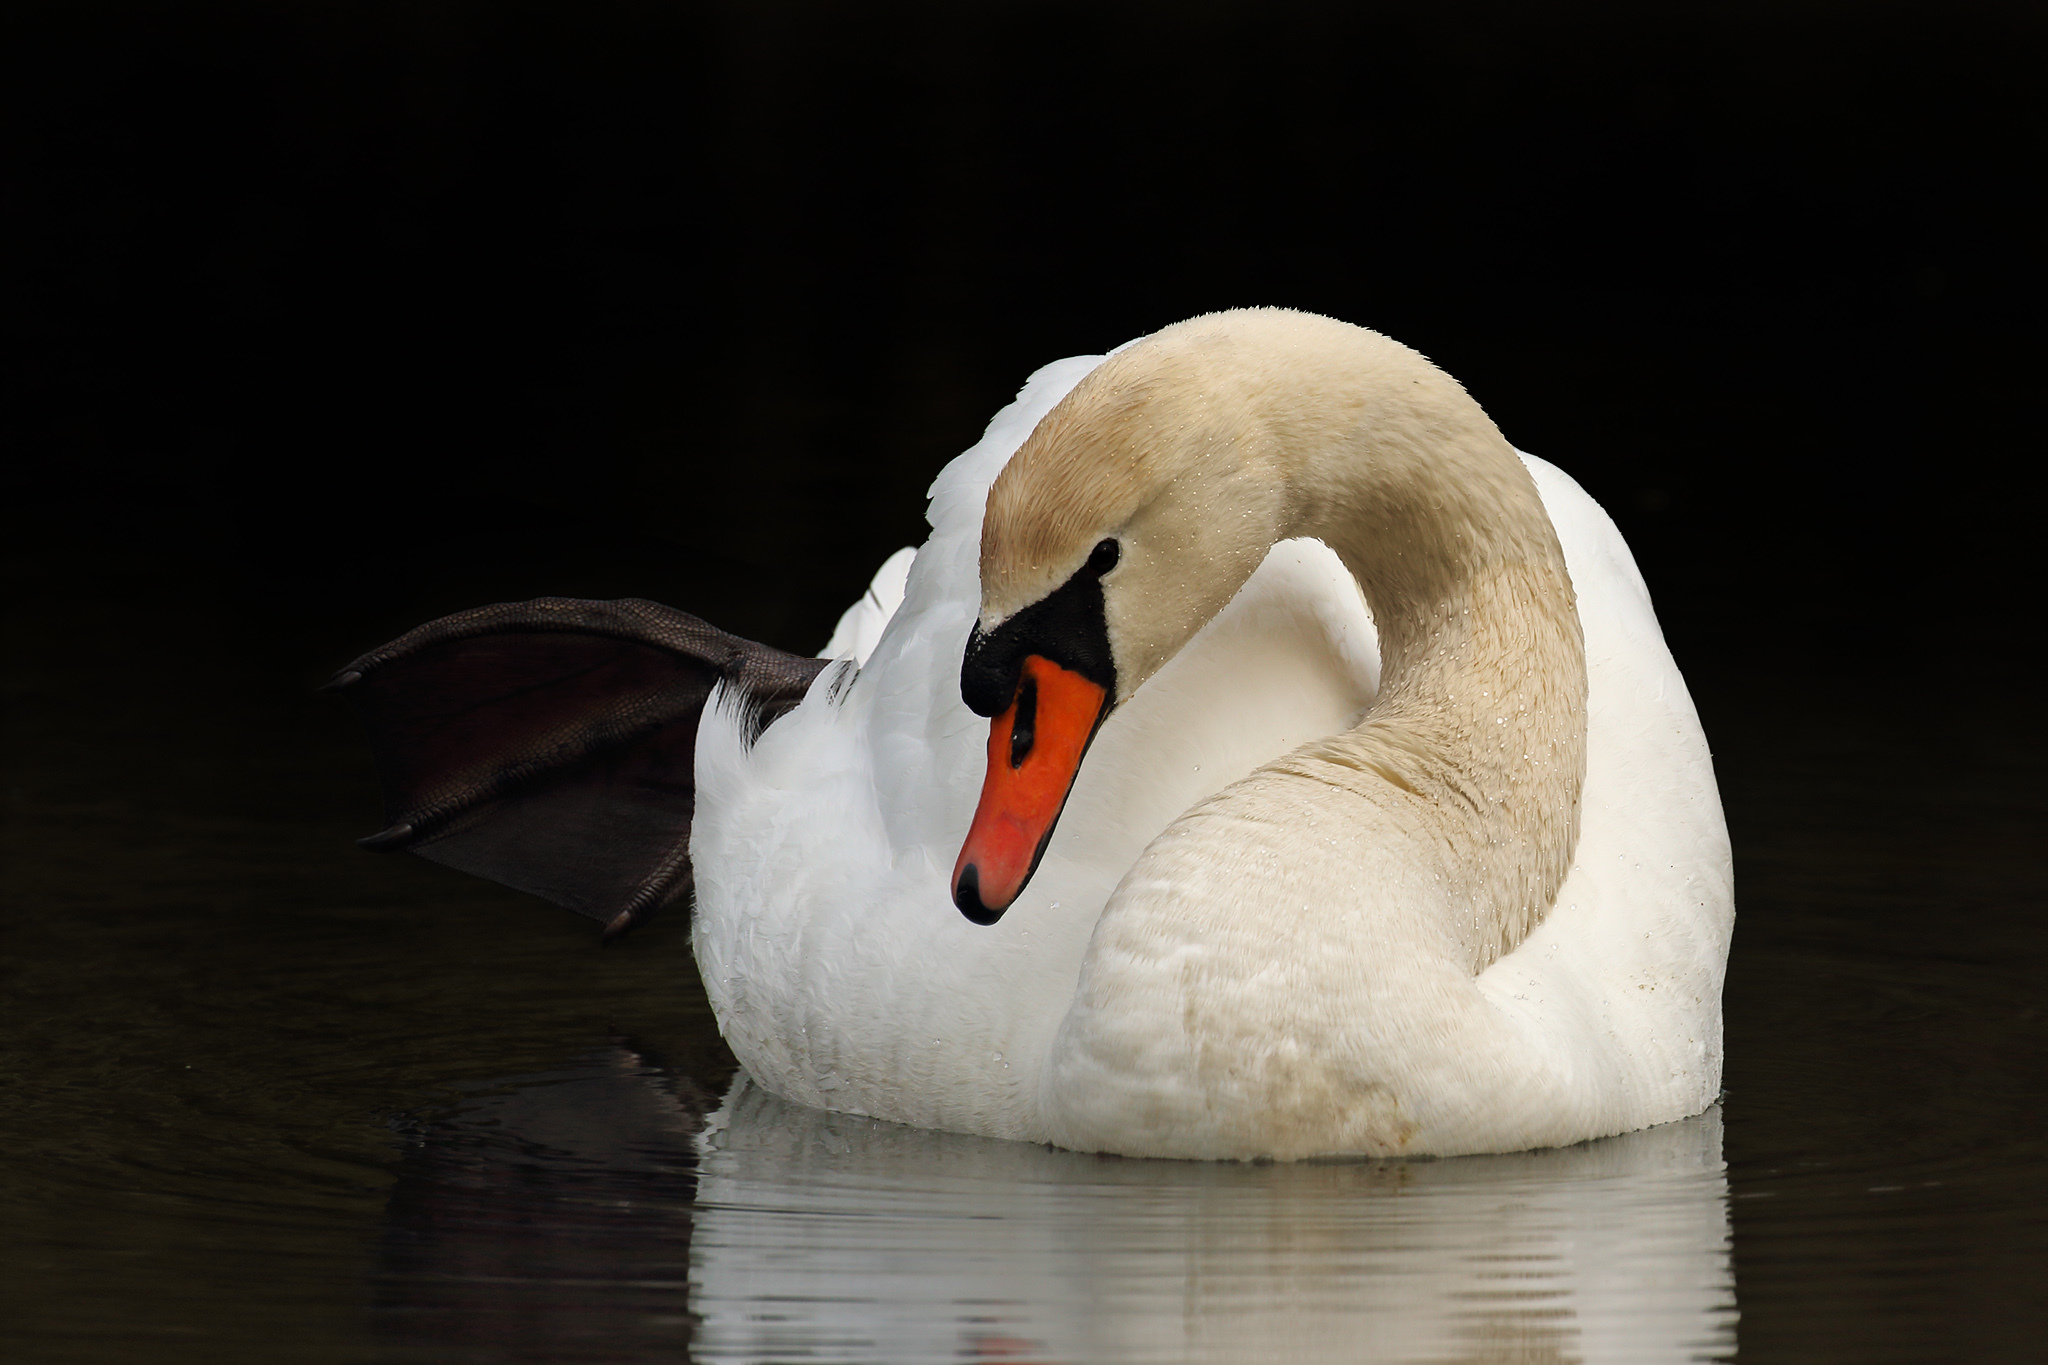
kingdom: Animalia
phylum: Chordata
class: Aves
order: Anseriformes
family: Anatidae
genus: Cygnus
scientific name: Cygnus olor
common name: Mute swan
